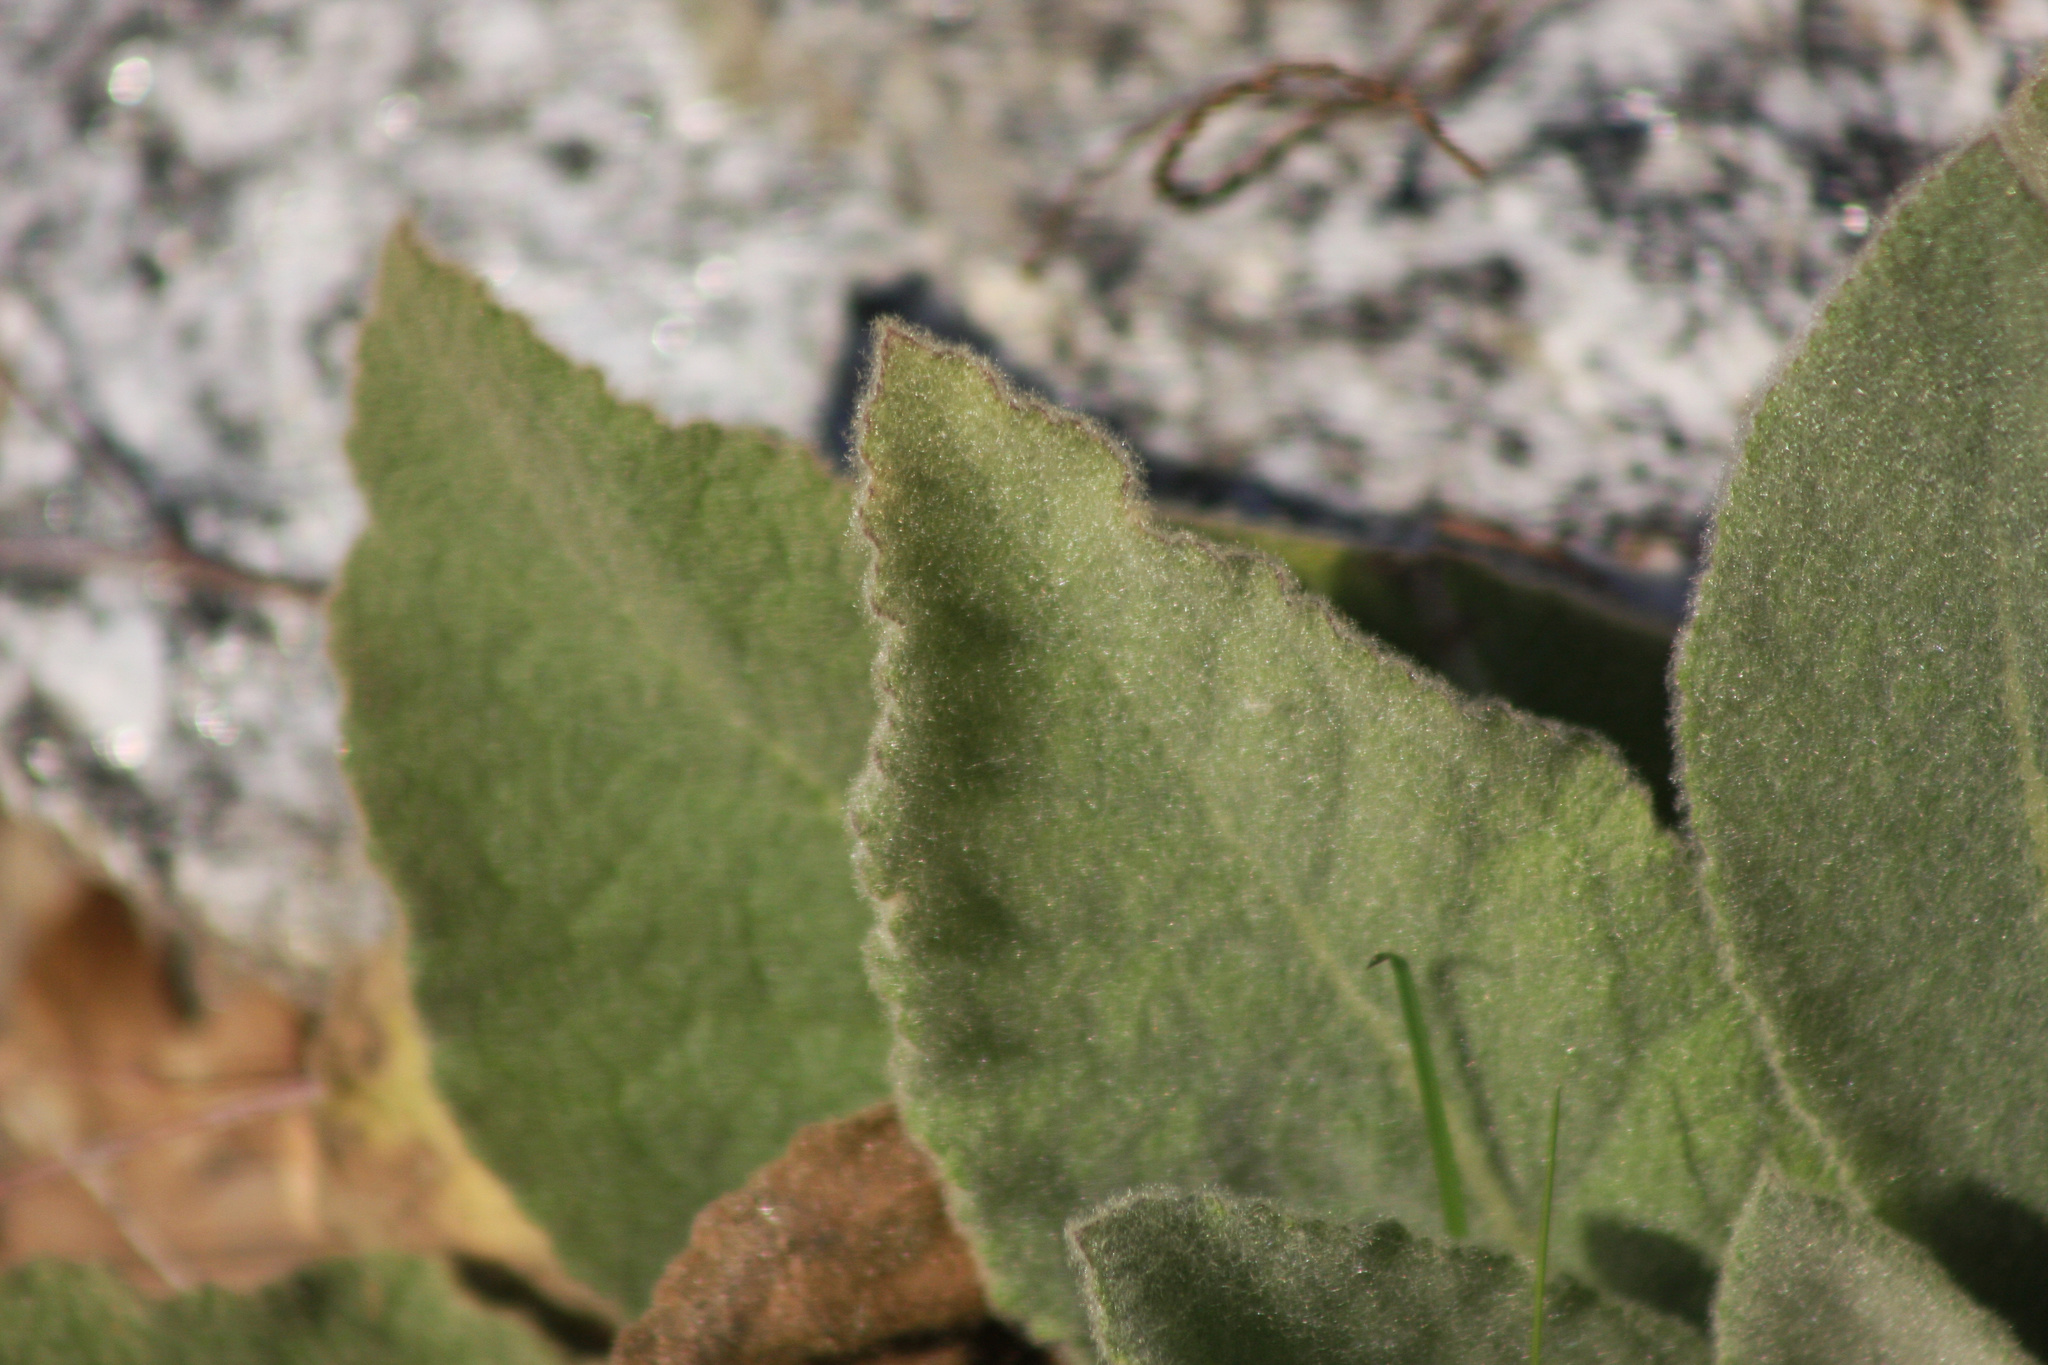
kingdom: Plantae
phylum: Tracheophyta
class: Magnoliopsida
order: Lamiales
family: Scrophulariaceae
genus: Verbascum
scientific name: Verbascum thapsus
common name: Common mullein
